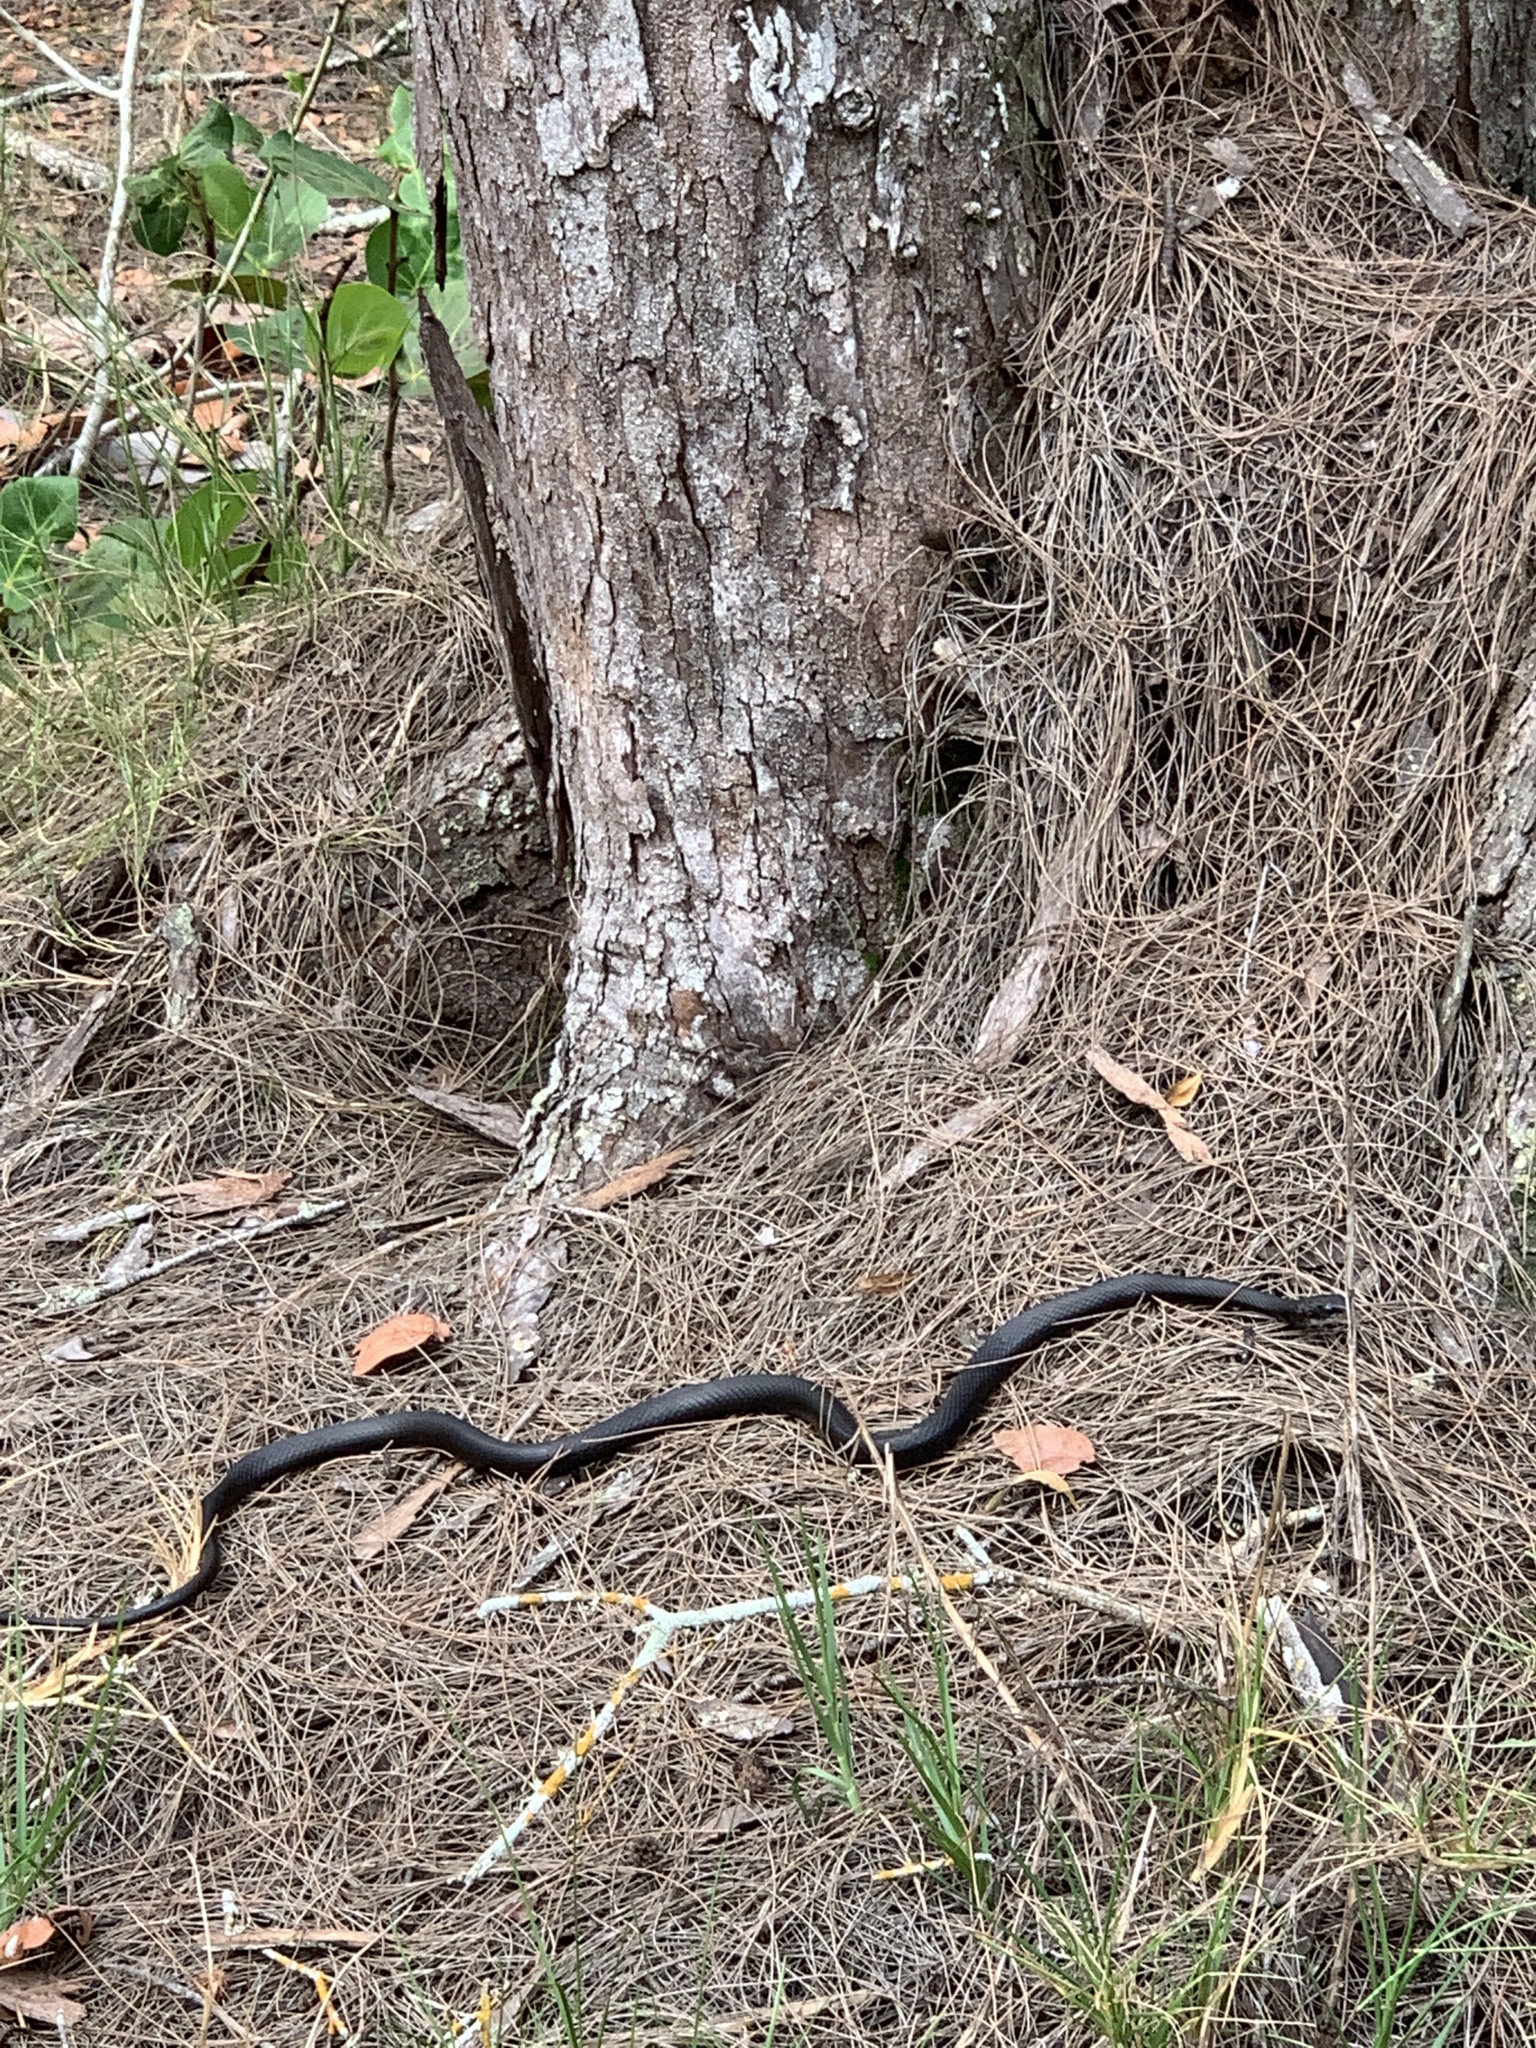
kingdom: Animalia
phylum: Chordata
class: Squamata
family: Colubridae
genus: Coluber
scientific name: Coluber constrictor
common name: Eastern racer
